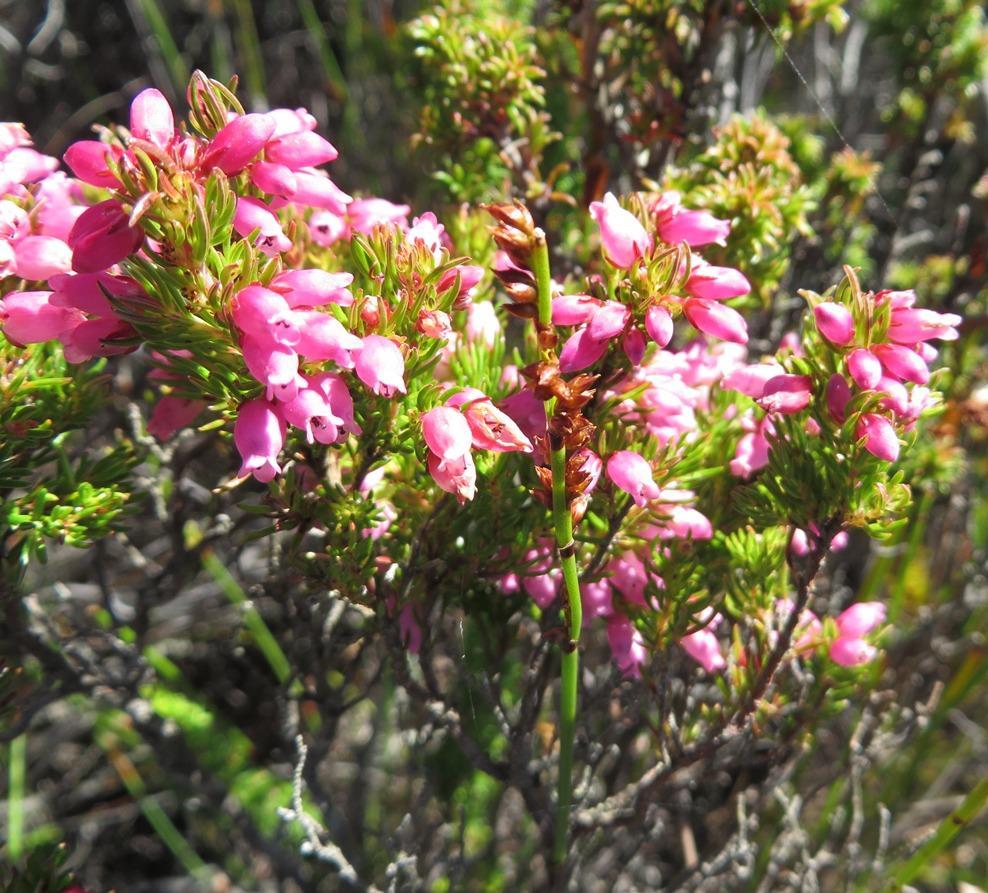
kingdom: Plantae
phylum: Tracheophyta
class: Magnoliopsida
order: Ericales
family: Ericaceae
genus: Erica
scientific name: Erica tenella
